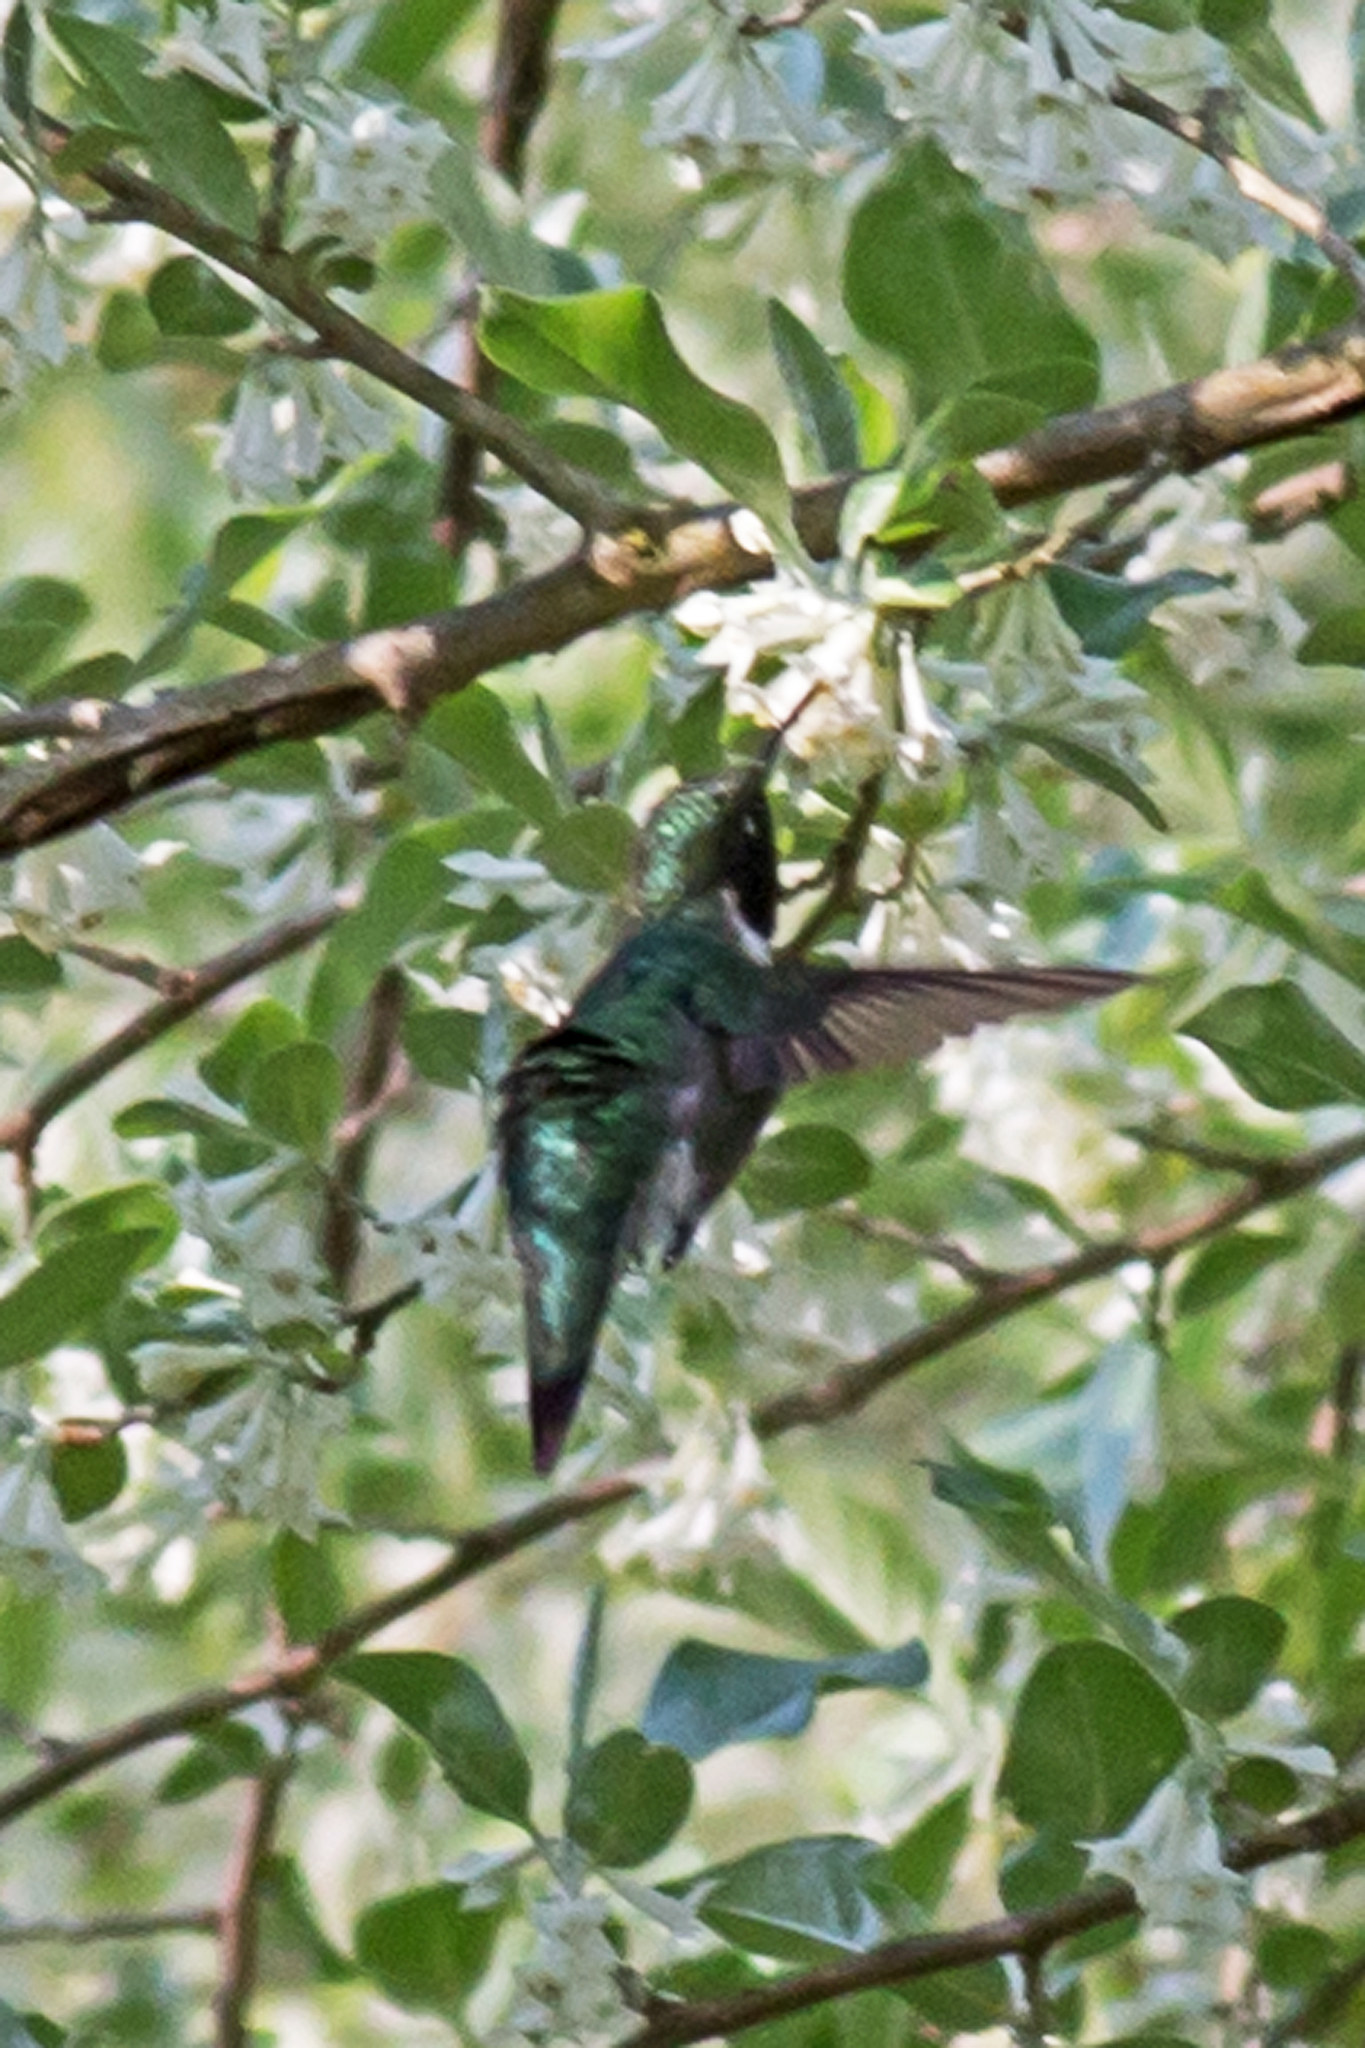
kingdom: Animalia
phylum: Chordata
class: Aves
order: Apodiformes
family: Trochilidae
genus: Archilochus
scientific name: Archilochus colubris
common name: Ruby-throated hummingbird
